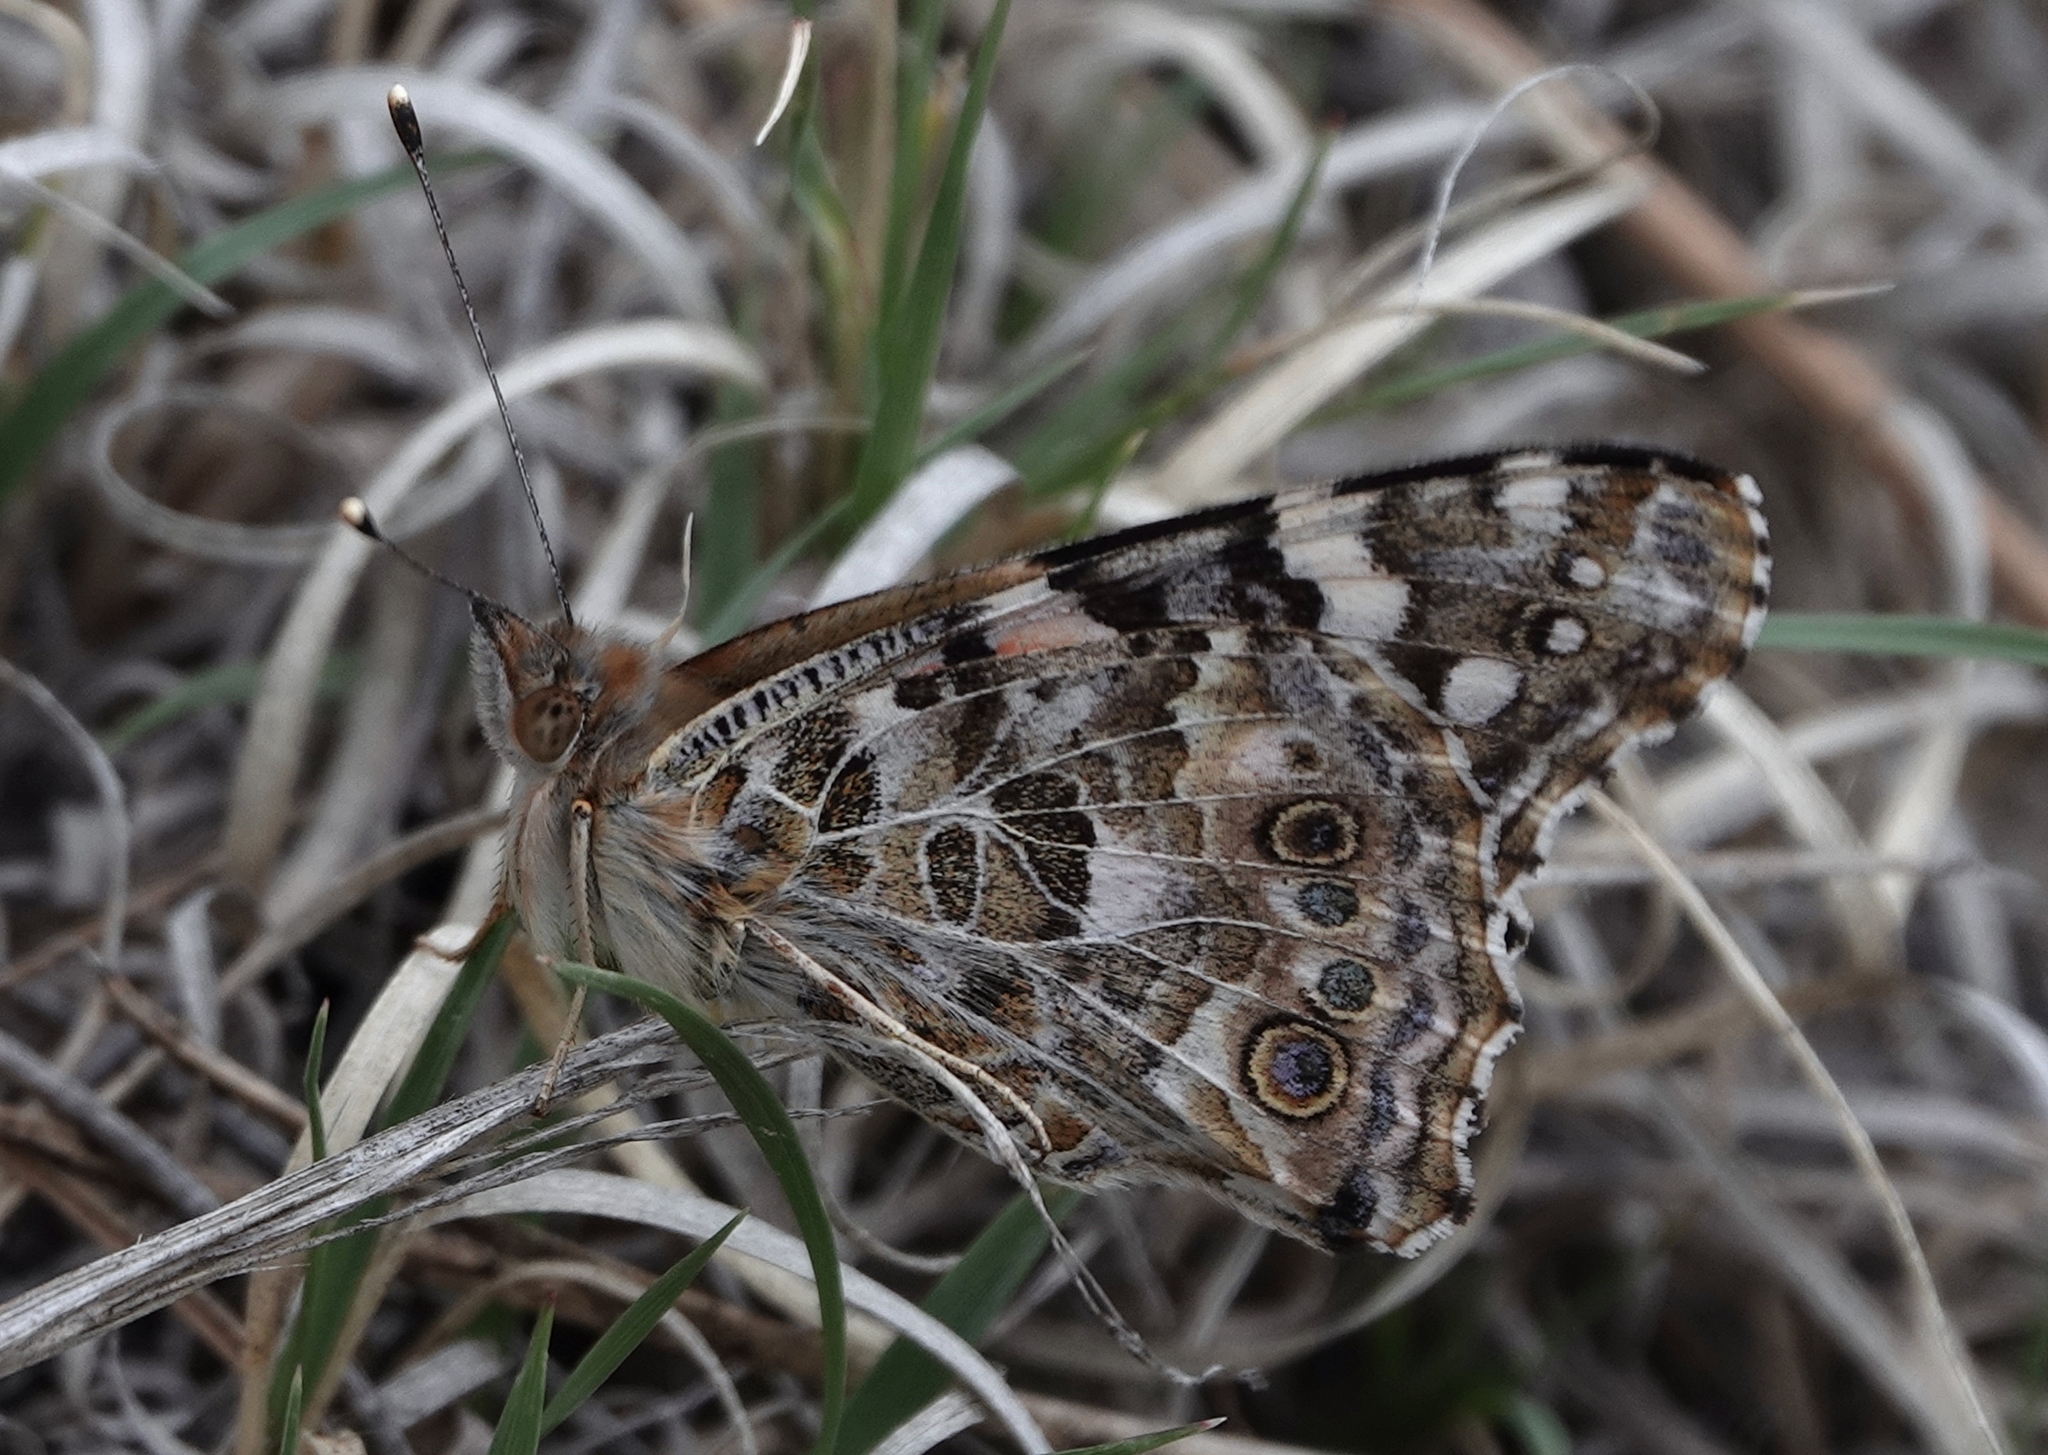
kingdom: Animalia
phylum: Arthropoda
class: Insecta
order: Lepidoptera
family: Nymphalidae
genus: Vanessa
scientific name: Vanessa cardui
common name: Painted lady
